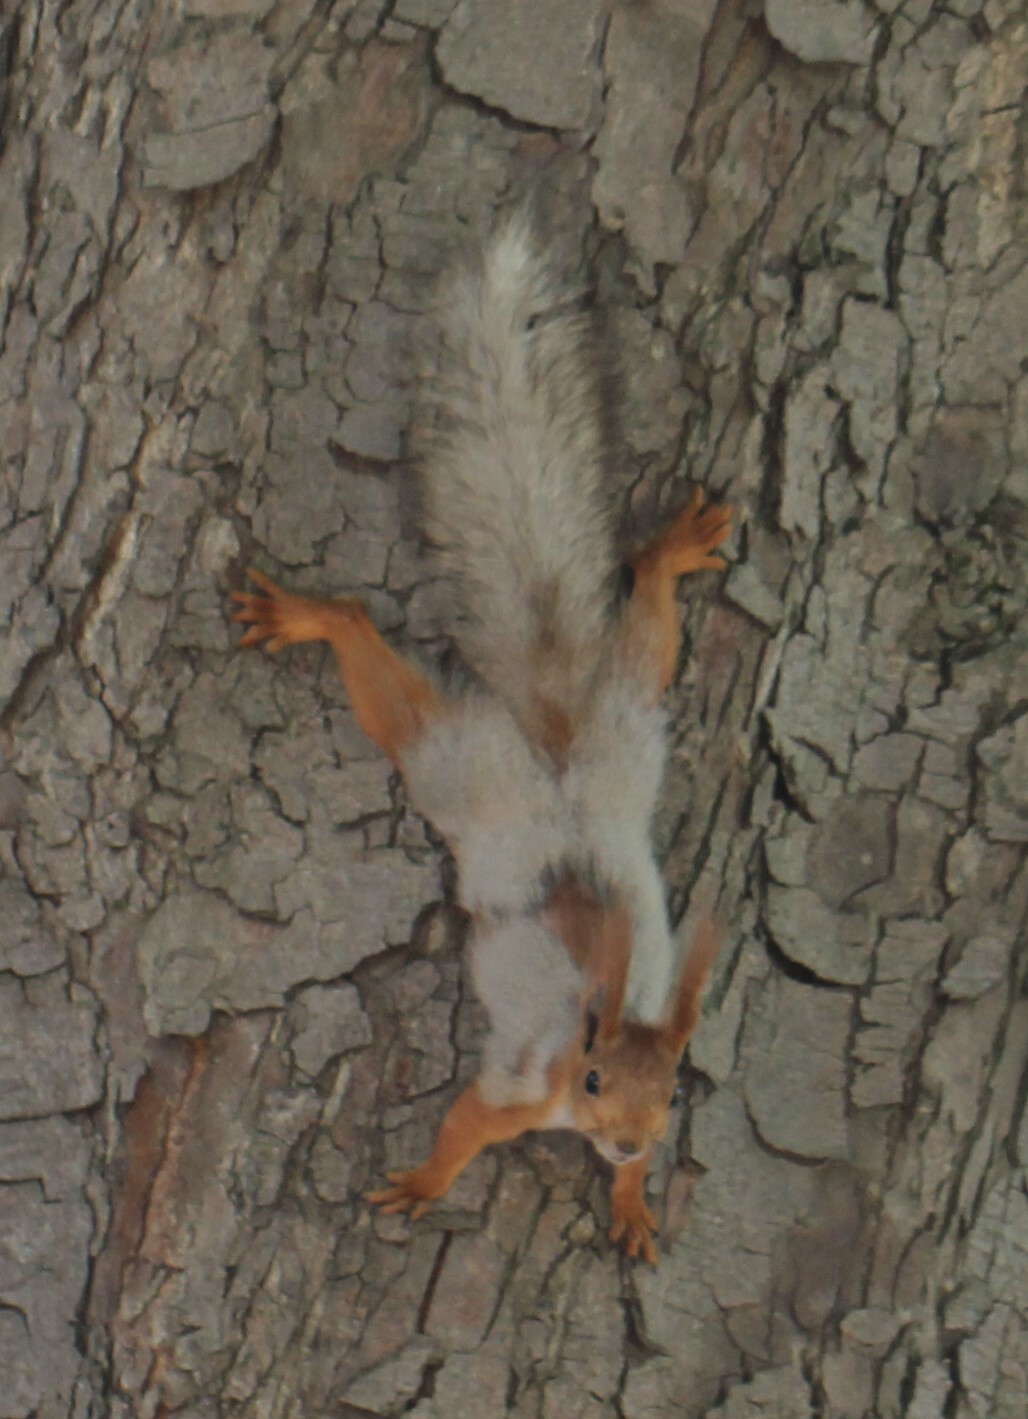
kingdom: Animalia
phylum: Chordata
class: Mammalia
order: Rodentia
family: Sciuridae
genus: Sciurus
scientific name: Sciurus vulgaris
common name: Eurasian red squirrel
